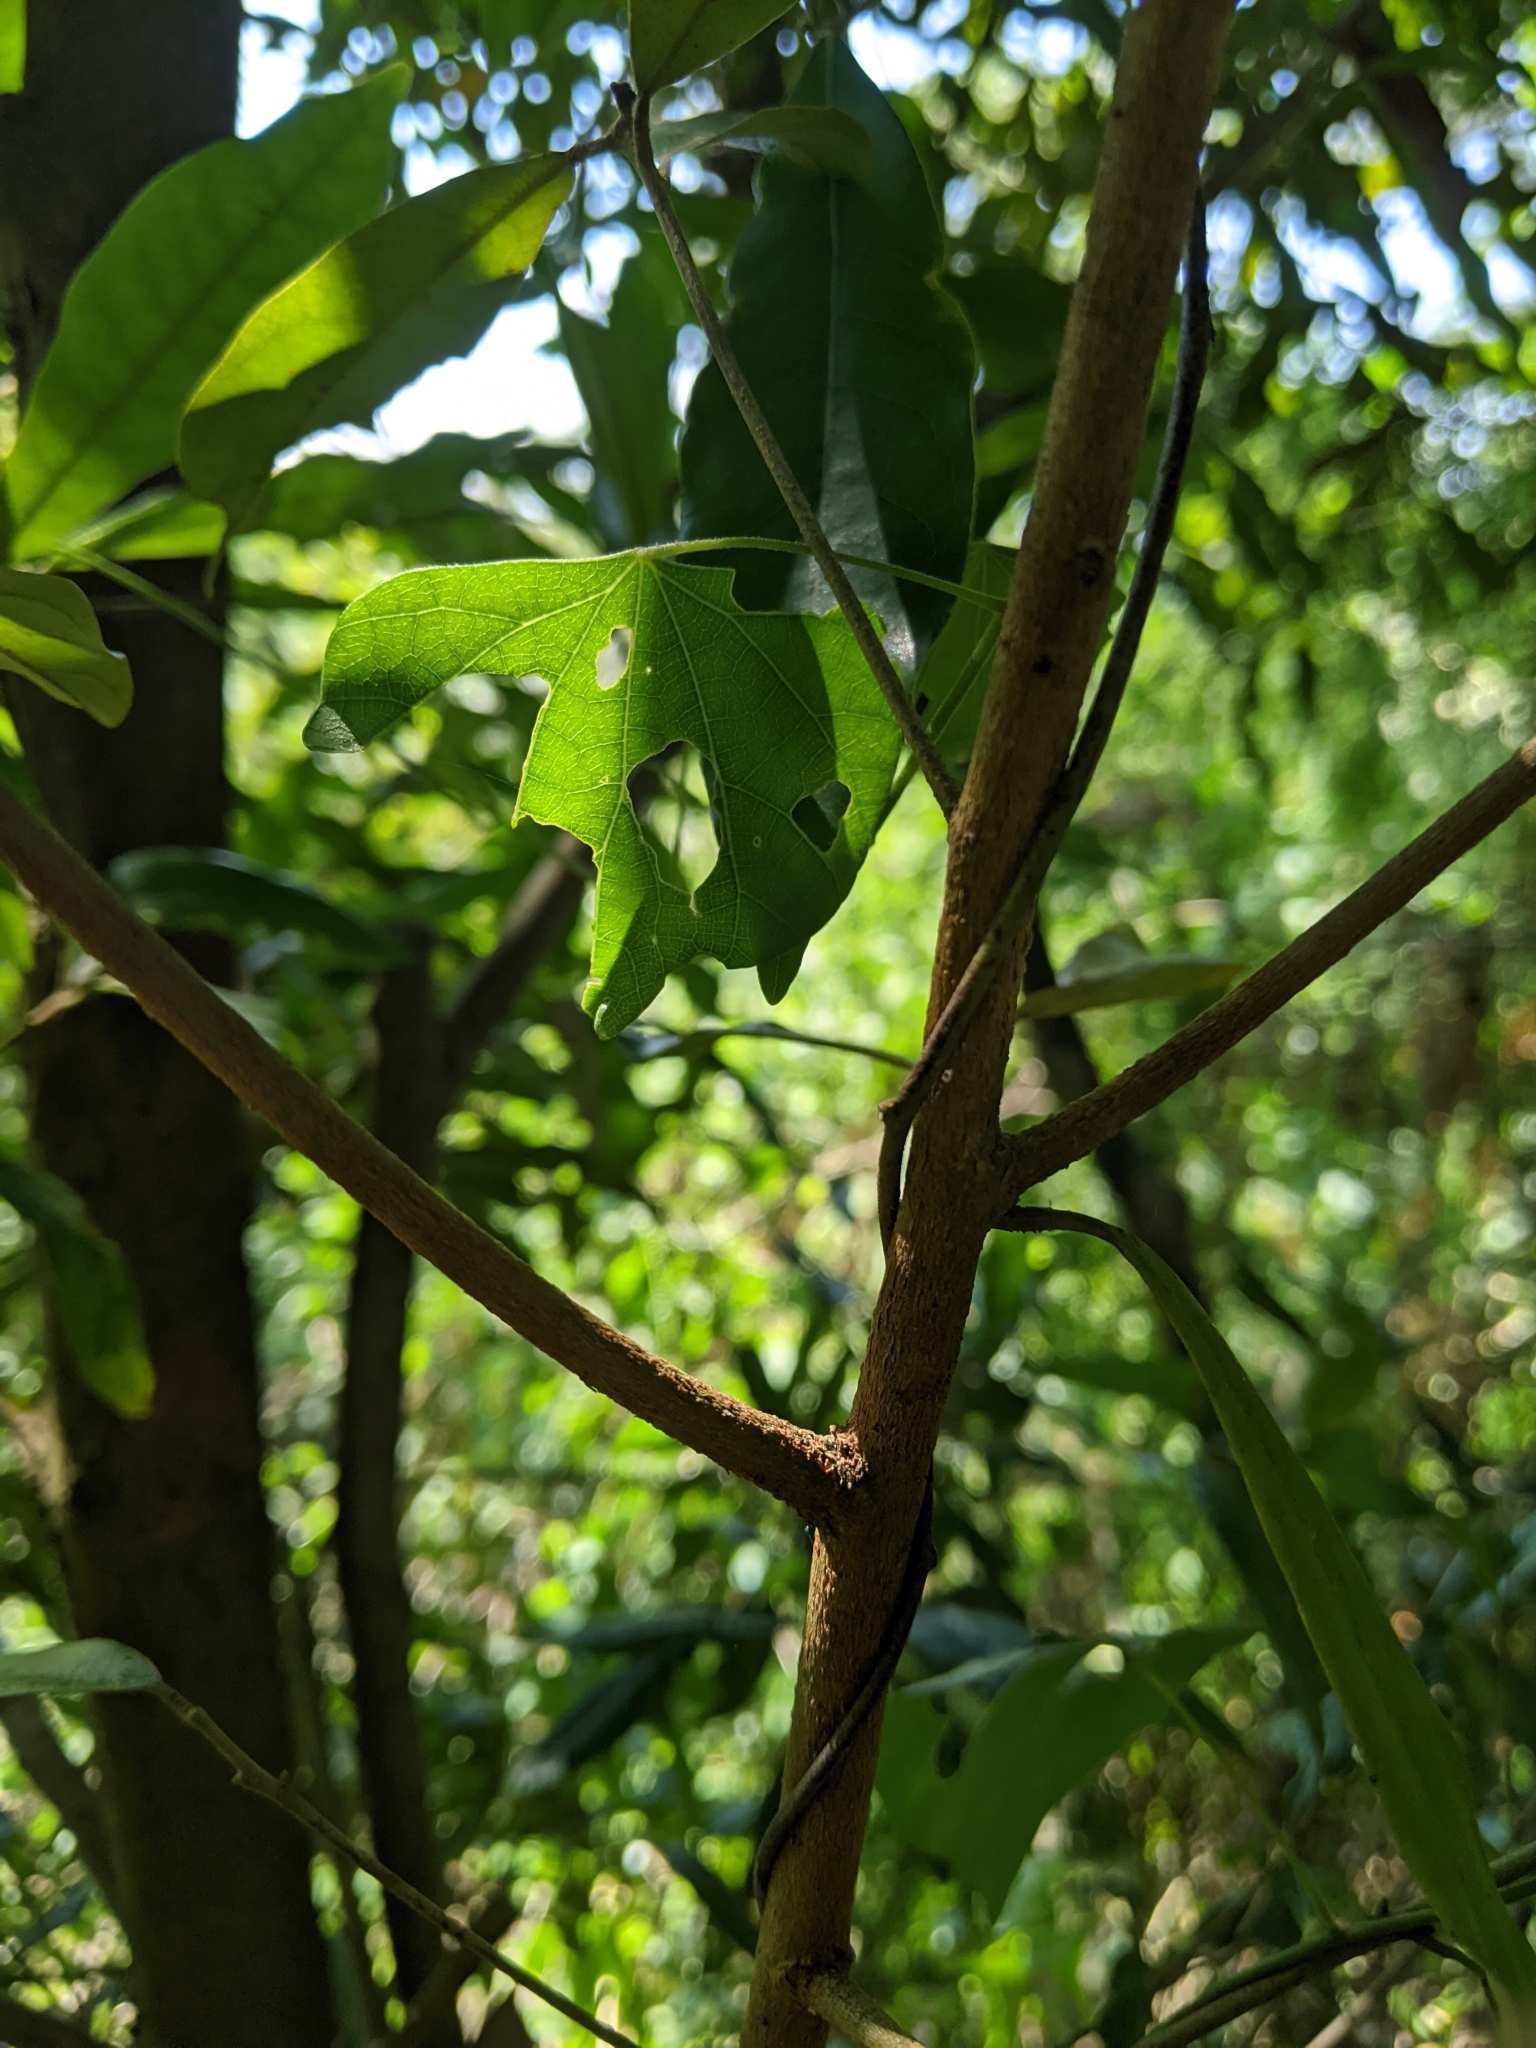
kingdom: Plantae
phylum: Tracheophyta
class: Magnoliopsida
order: Laurales
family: Lauraceae
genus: Litsea
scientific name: Litsea hypophaea
